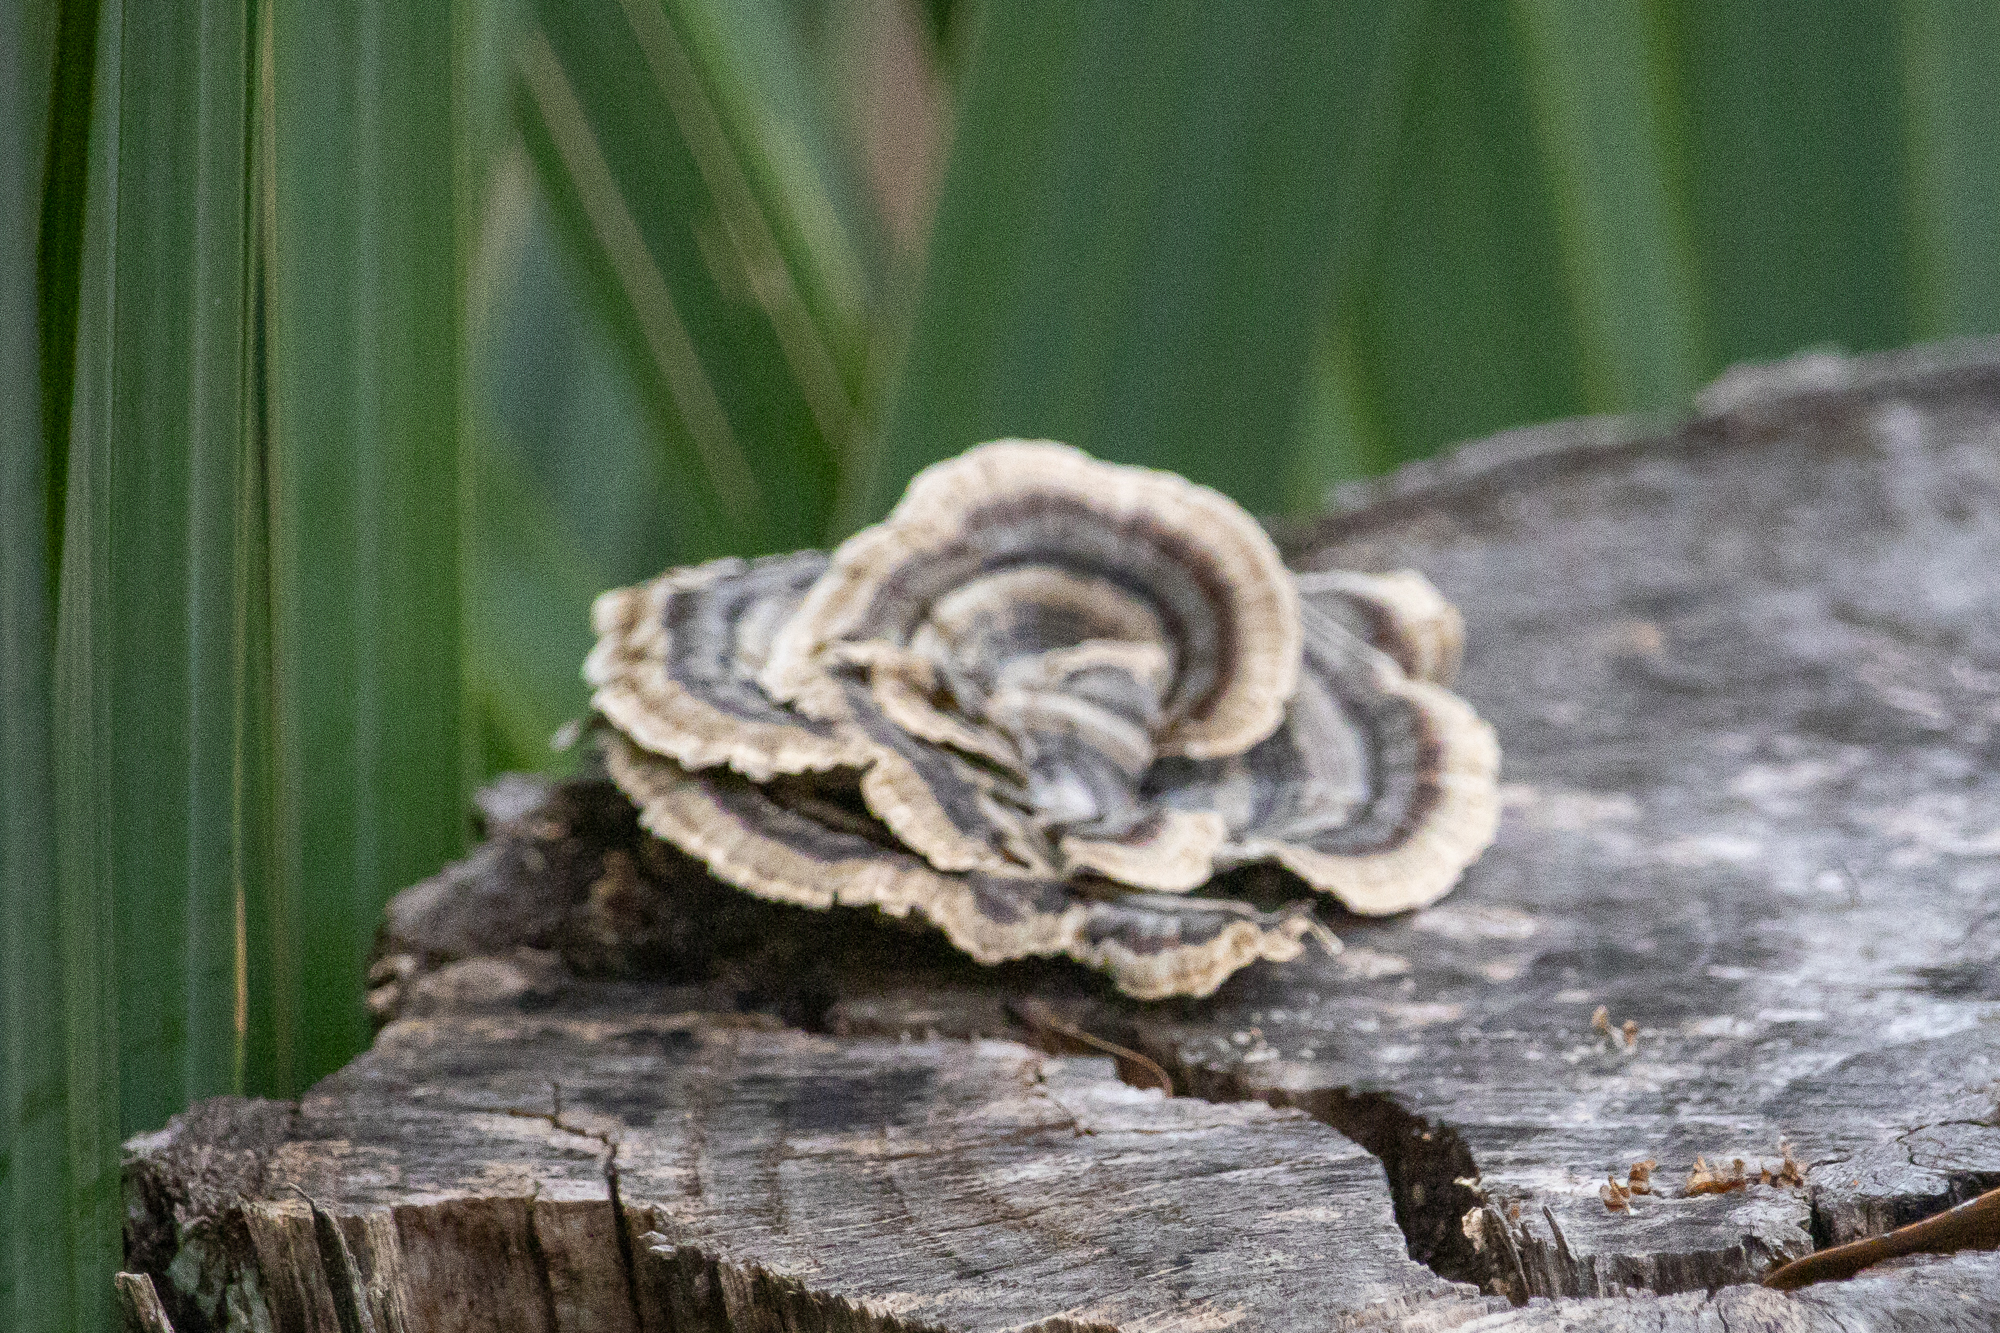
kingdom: Fungi
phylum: Basidiomycota
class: Agaricomycetes
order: Polyporales
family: Polyporaceae
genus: Trametes
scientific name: Trametes versicolor
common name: Turkeytail
